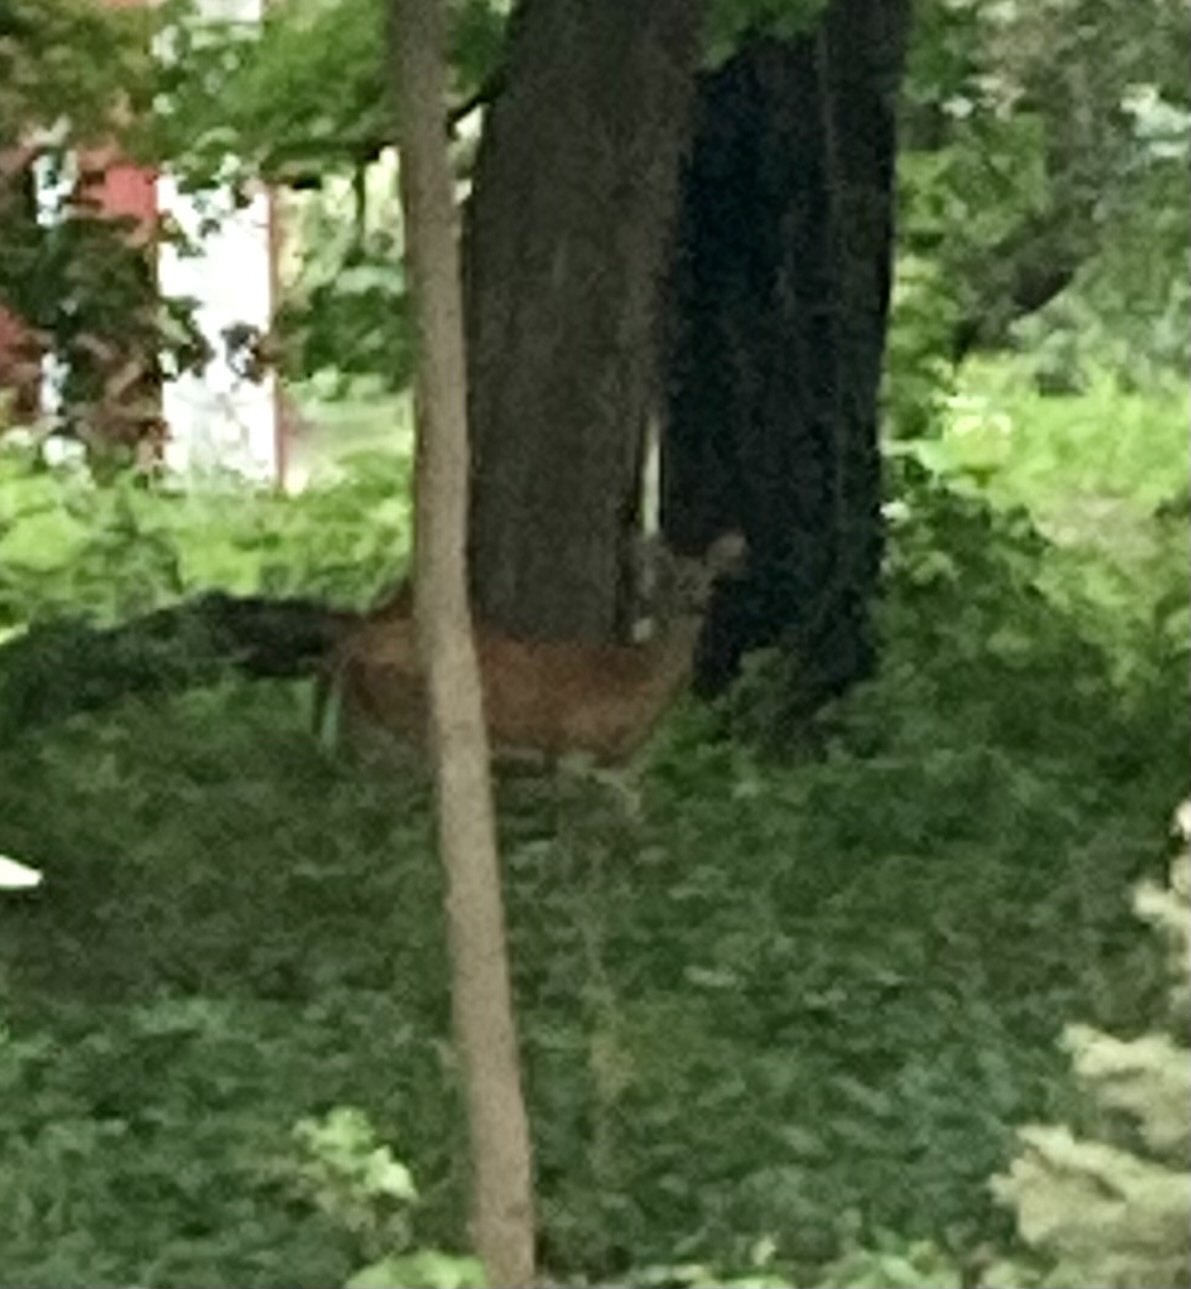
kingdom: Animalia
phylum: Chordata
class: Mammalia
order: Artiodactyla
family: Cervidae
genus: Odocoileus
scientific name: Odocoileus virginianus
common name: White-tailed deer
